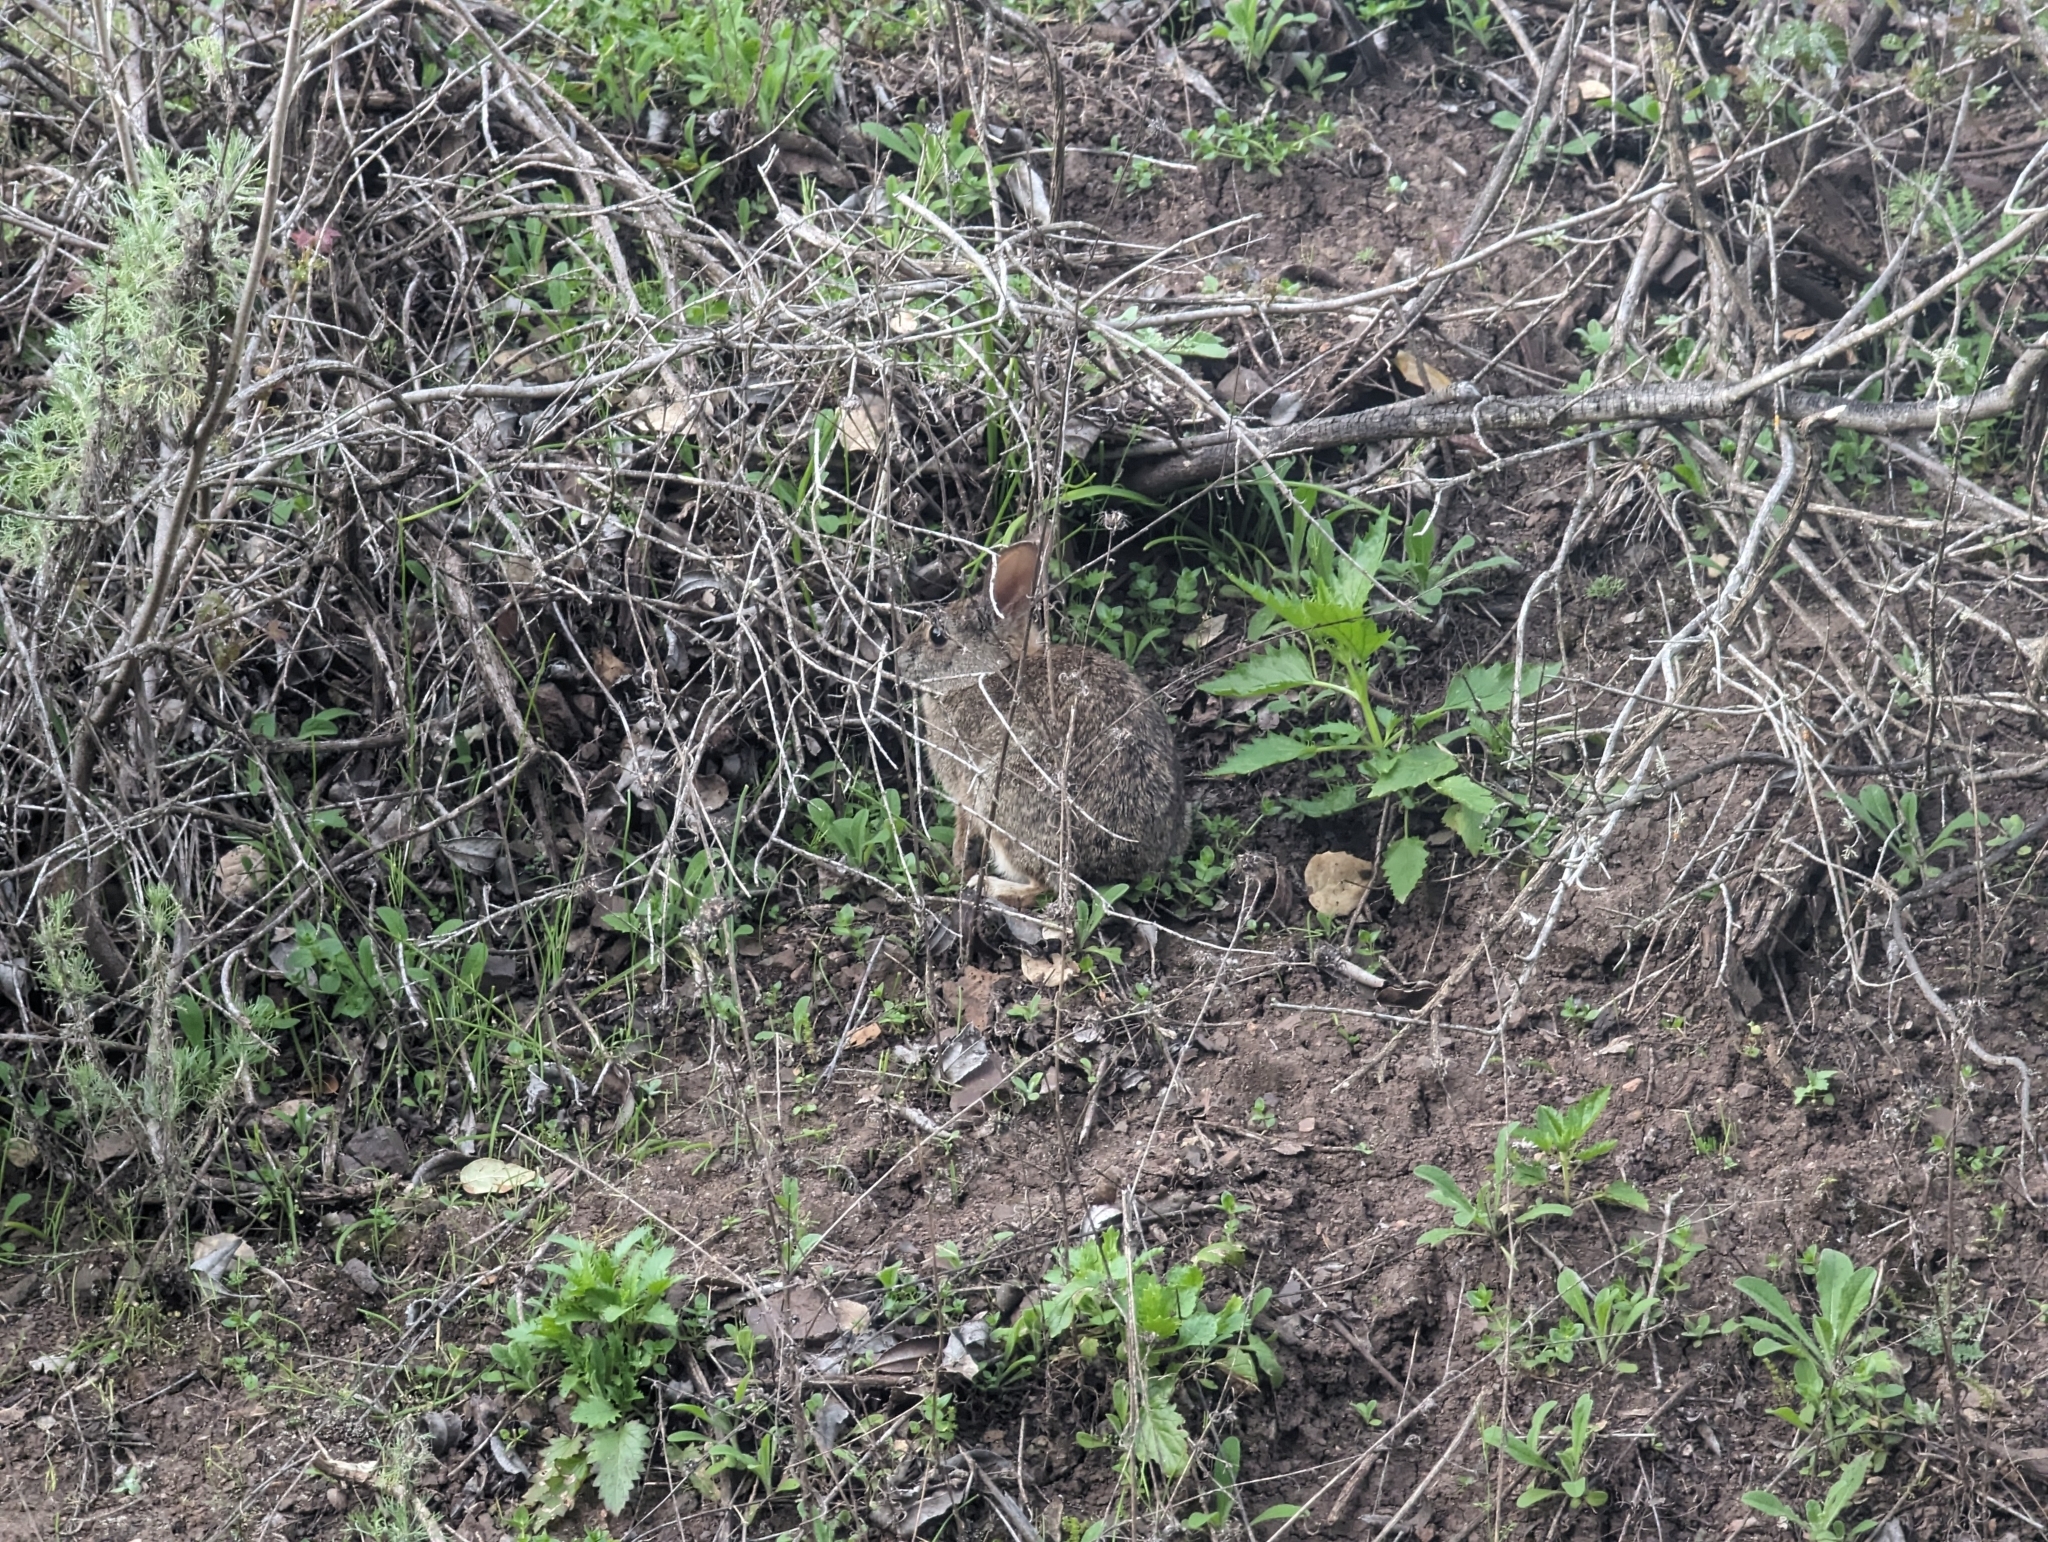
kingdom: Animalia
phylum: Chordata
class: Mammalia
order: Lagomorpha
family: Leporidae
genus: Sylvilagus
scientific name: Sylvilagus bachmani
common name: Brush rabbit
